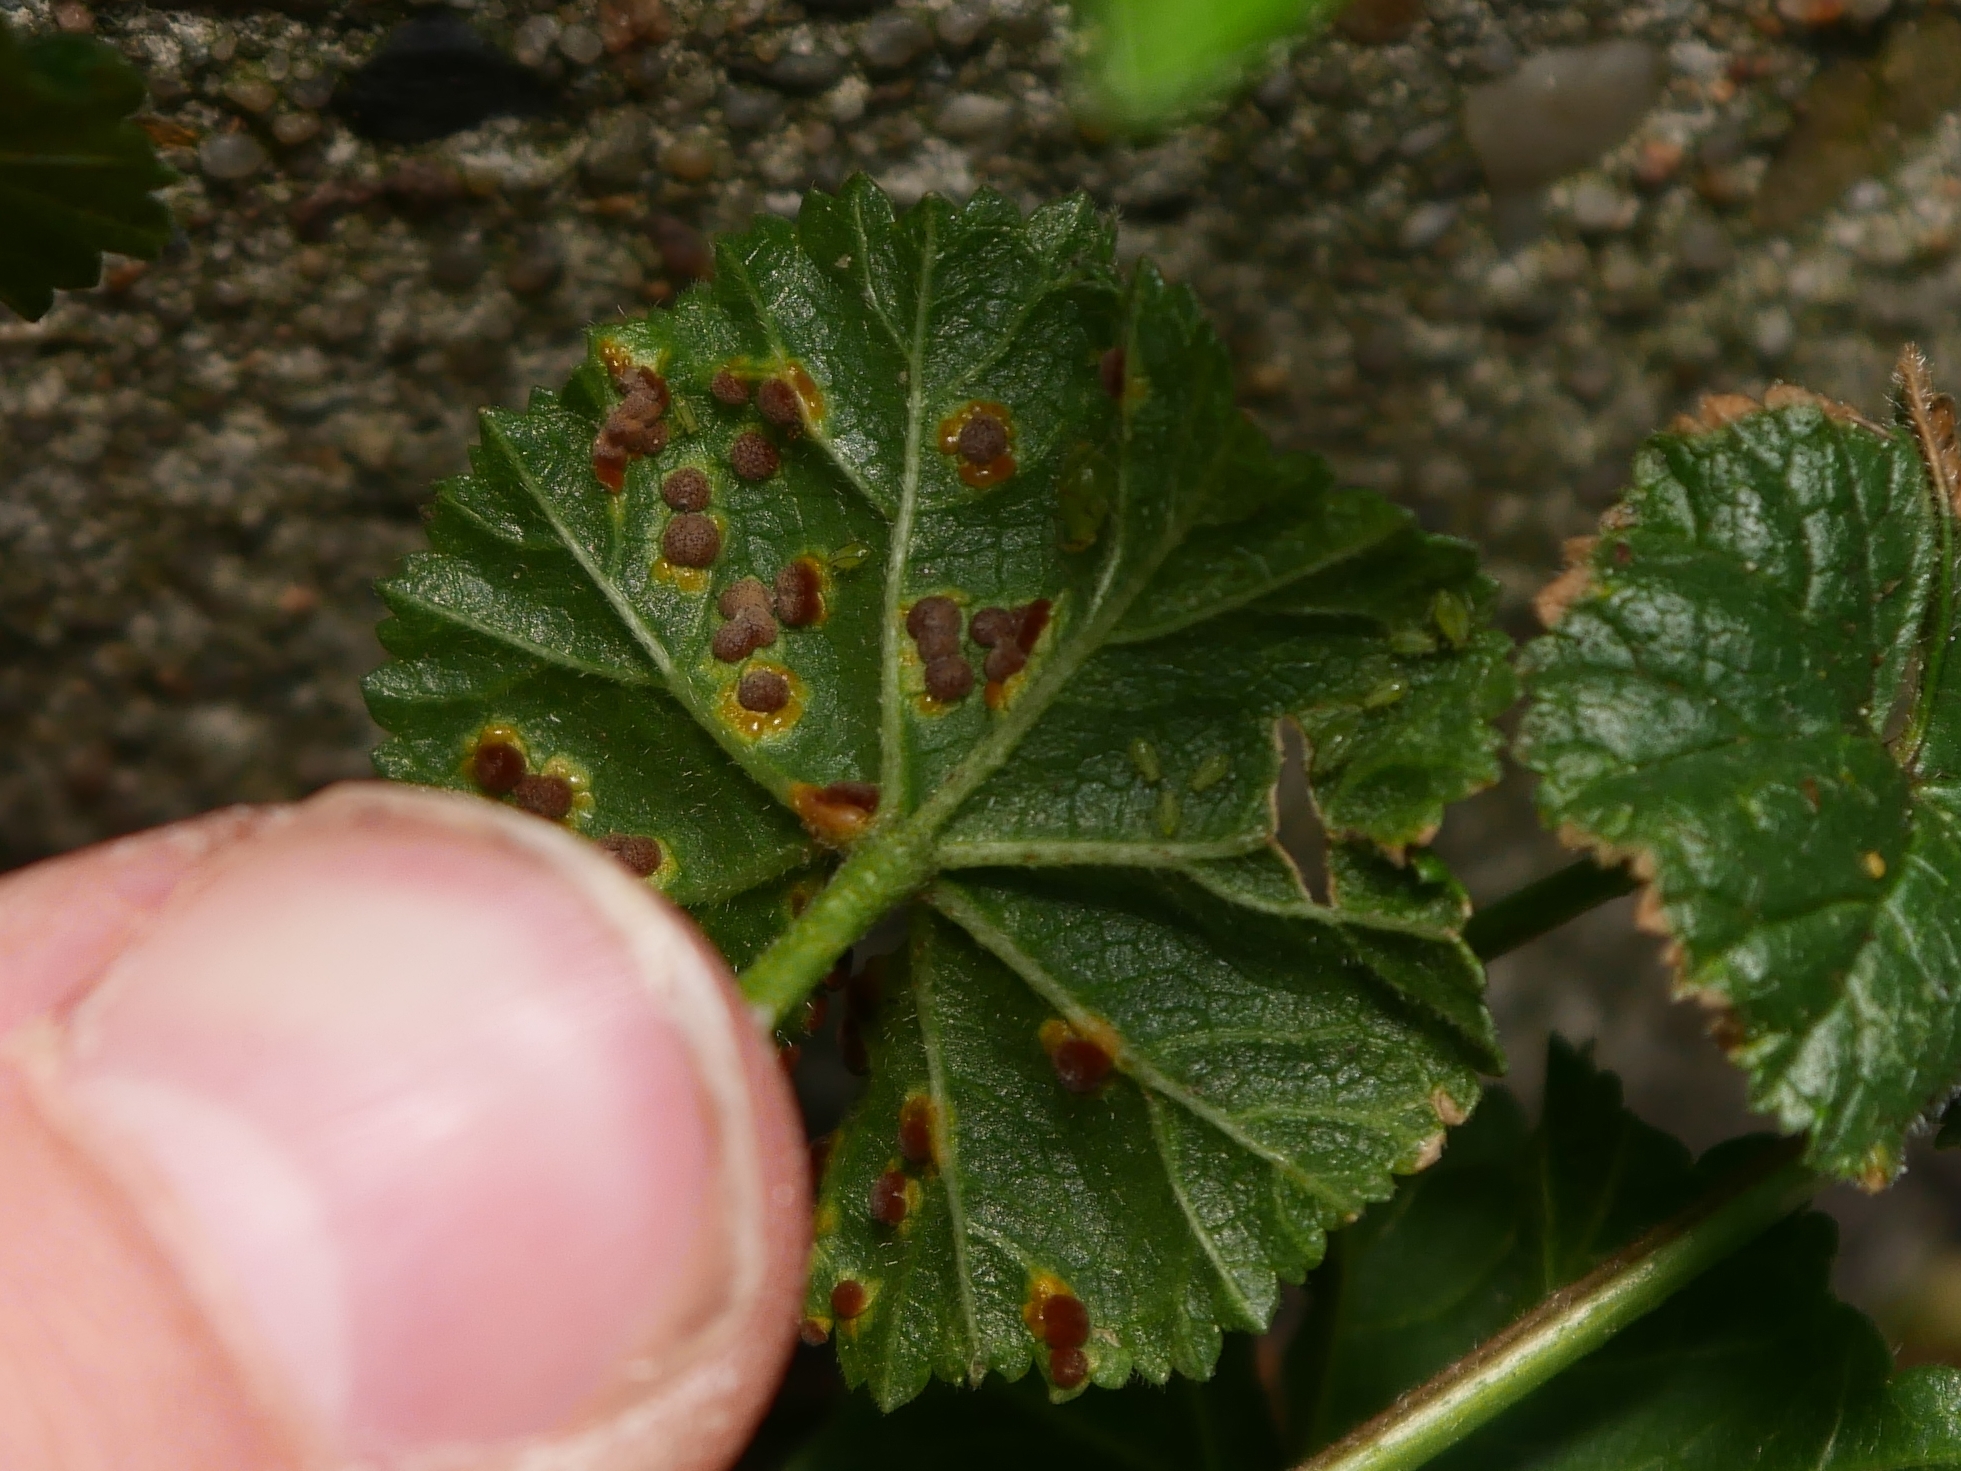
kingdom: Fungi
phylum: Basidiomycota
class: Pucciniomycetes
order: Pucciniales
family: Pucciniaceae
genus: Puccinia
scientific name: Puccinia malvacearum
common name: Hollyhock rust
